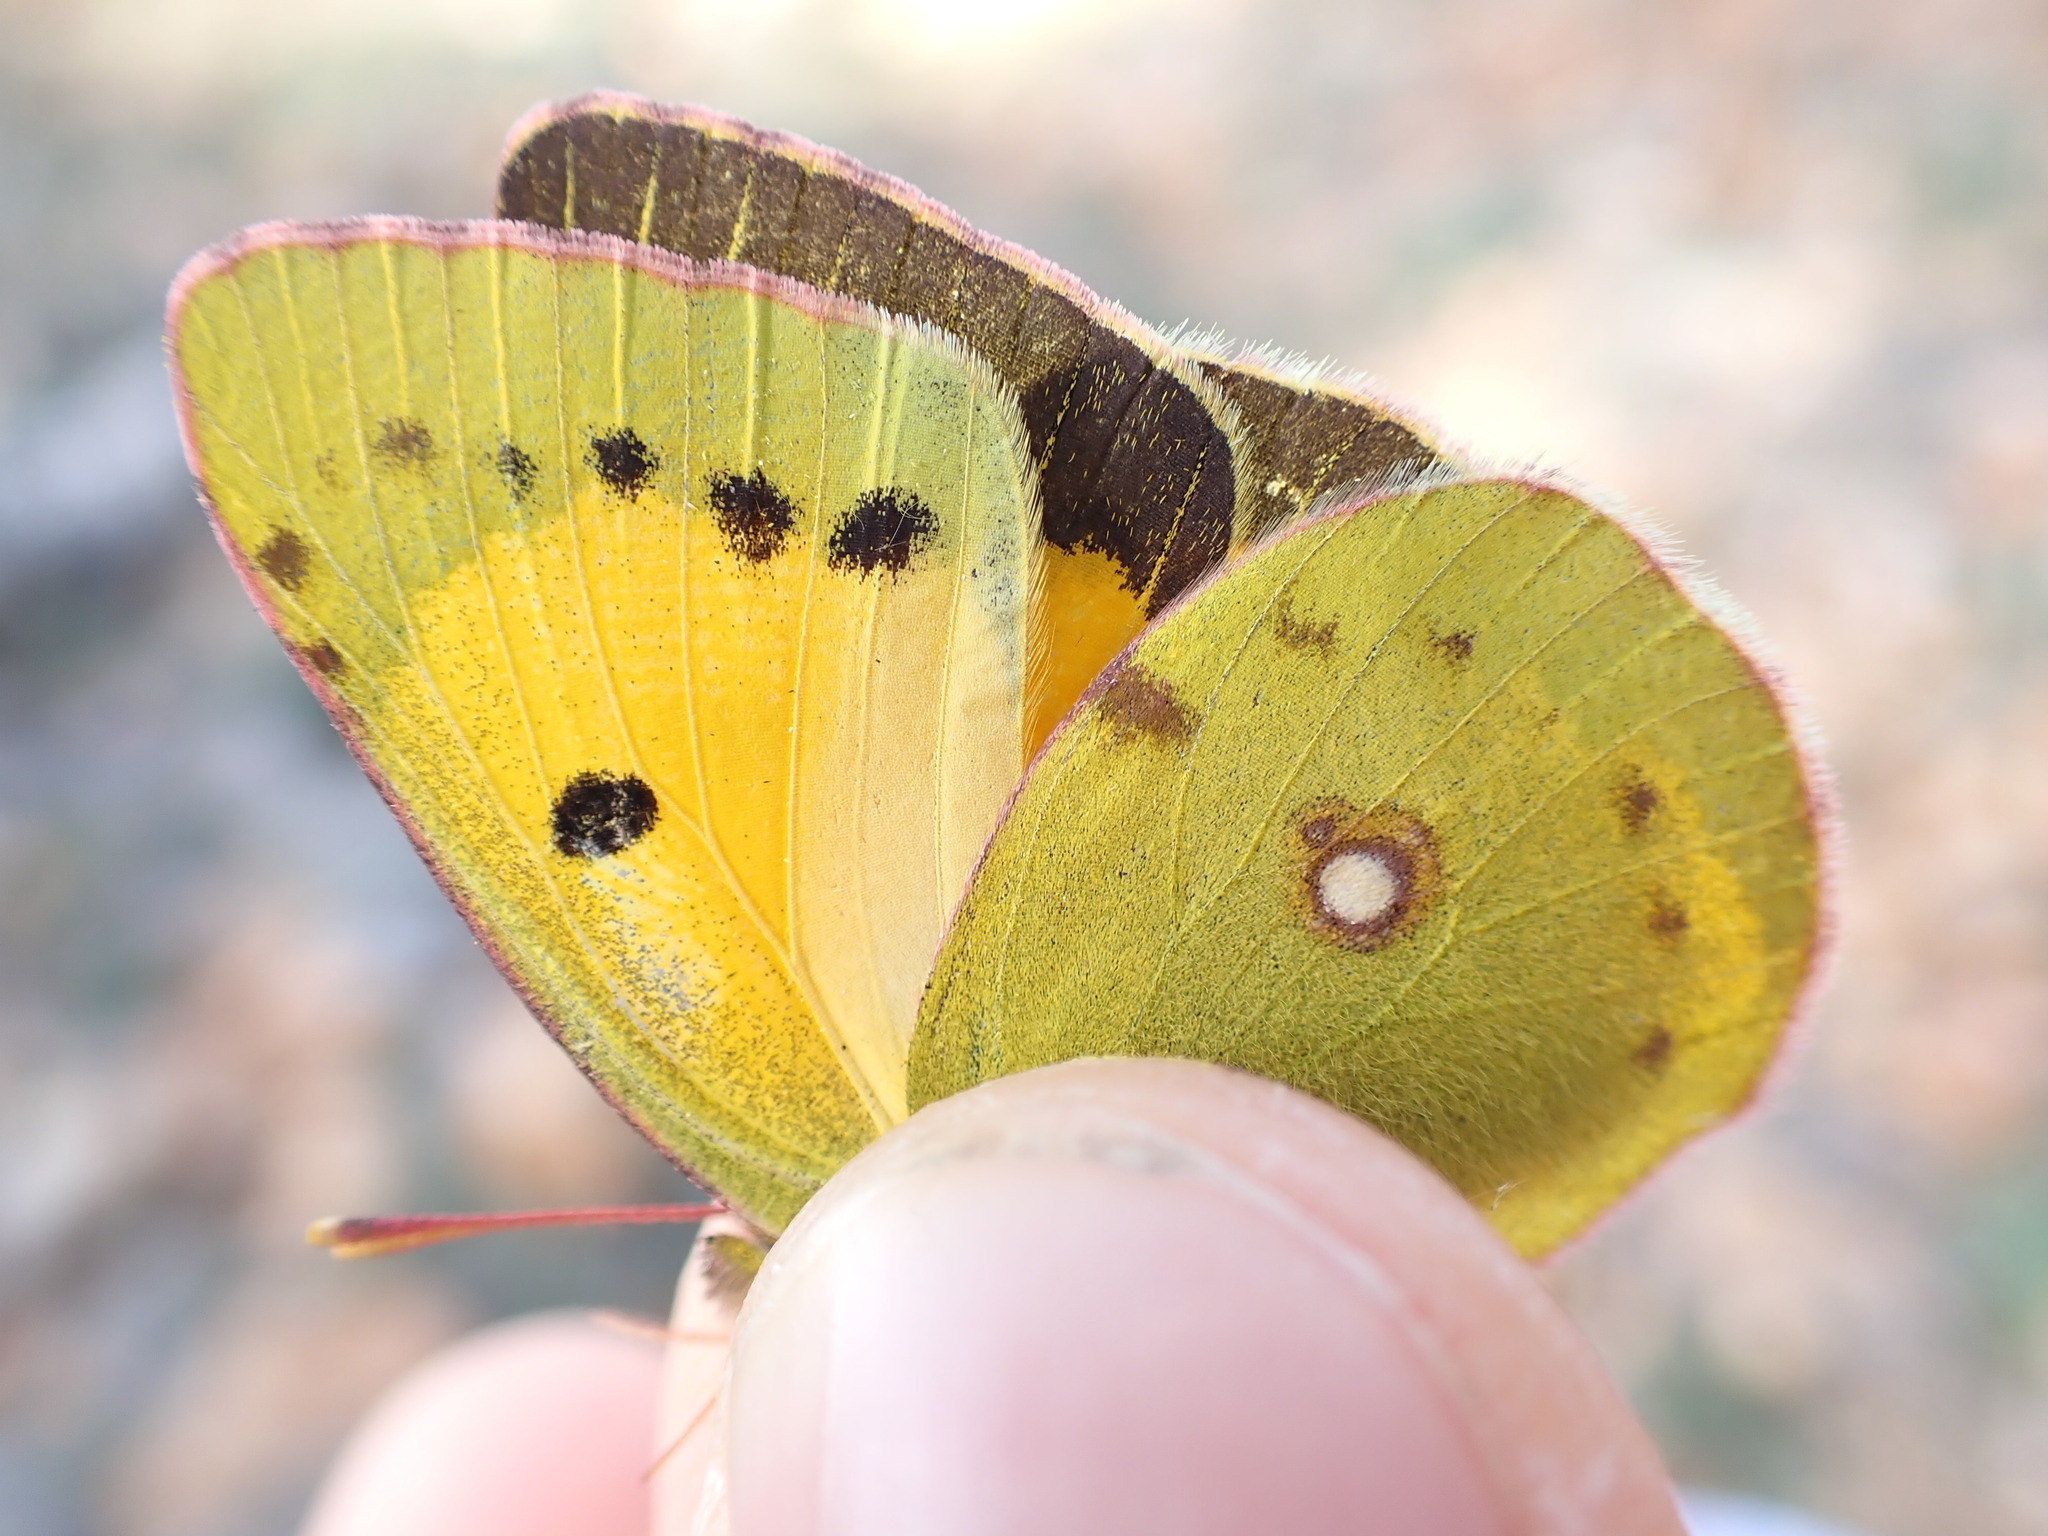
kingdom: Animalia
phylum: Arthropoda
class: Insecta
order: Lepidoptera
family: Pieridae
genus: Colias
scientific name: Colias croceus
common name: Clouded yellow
